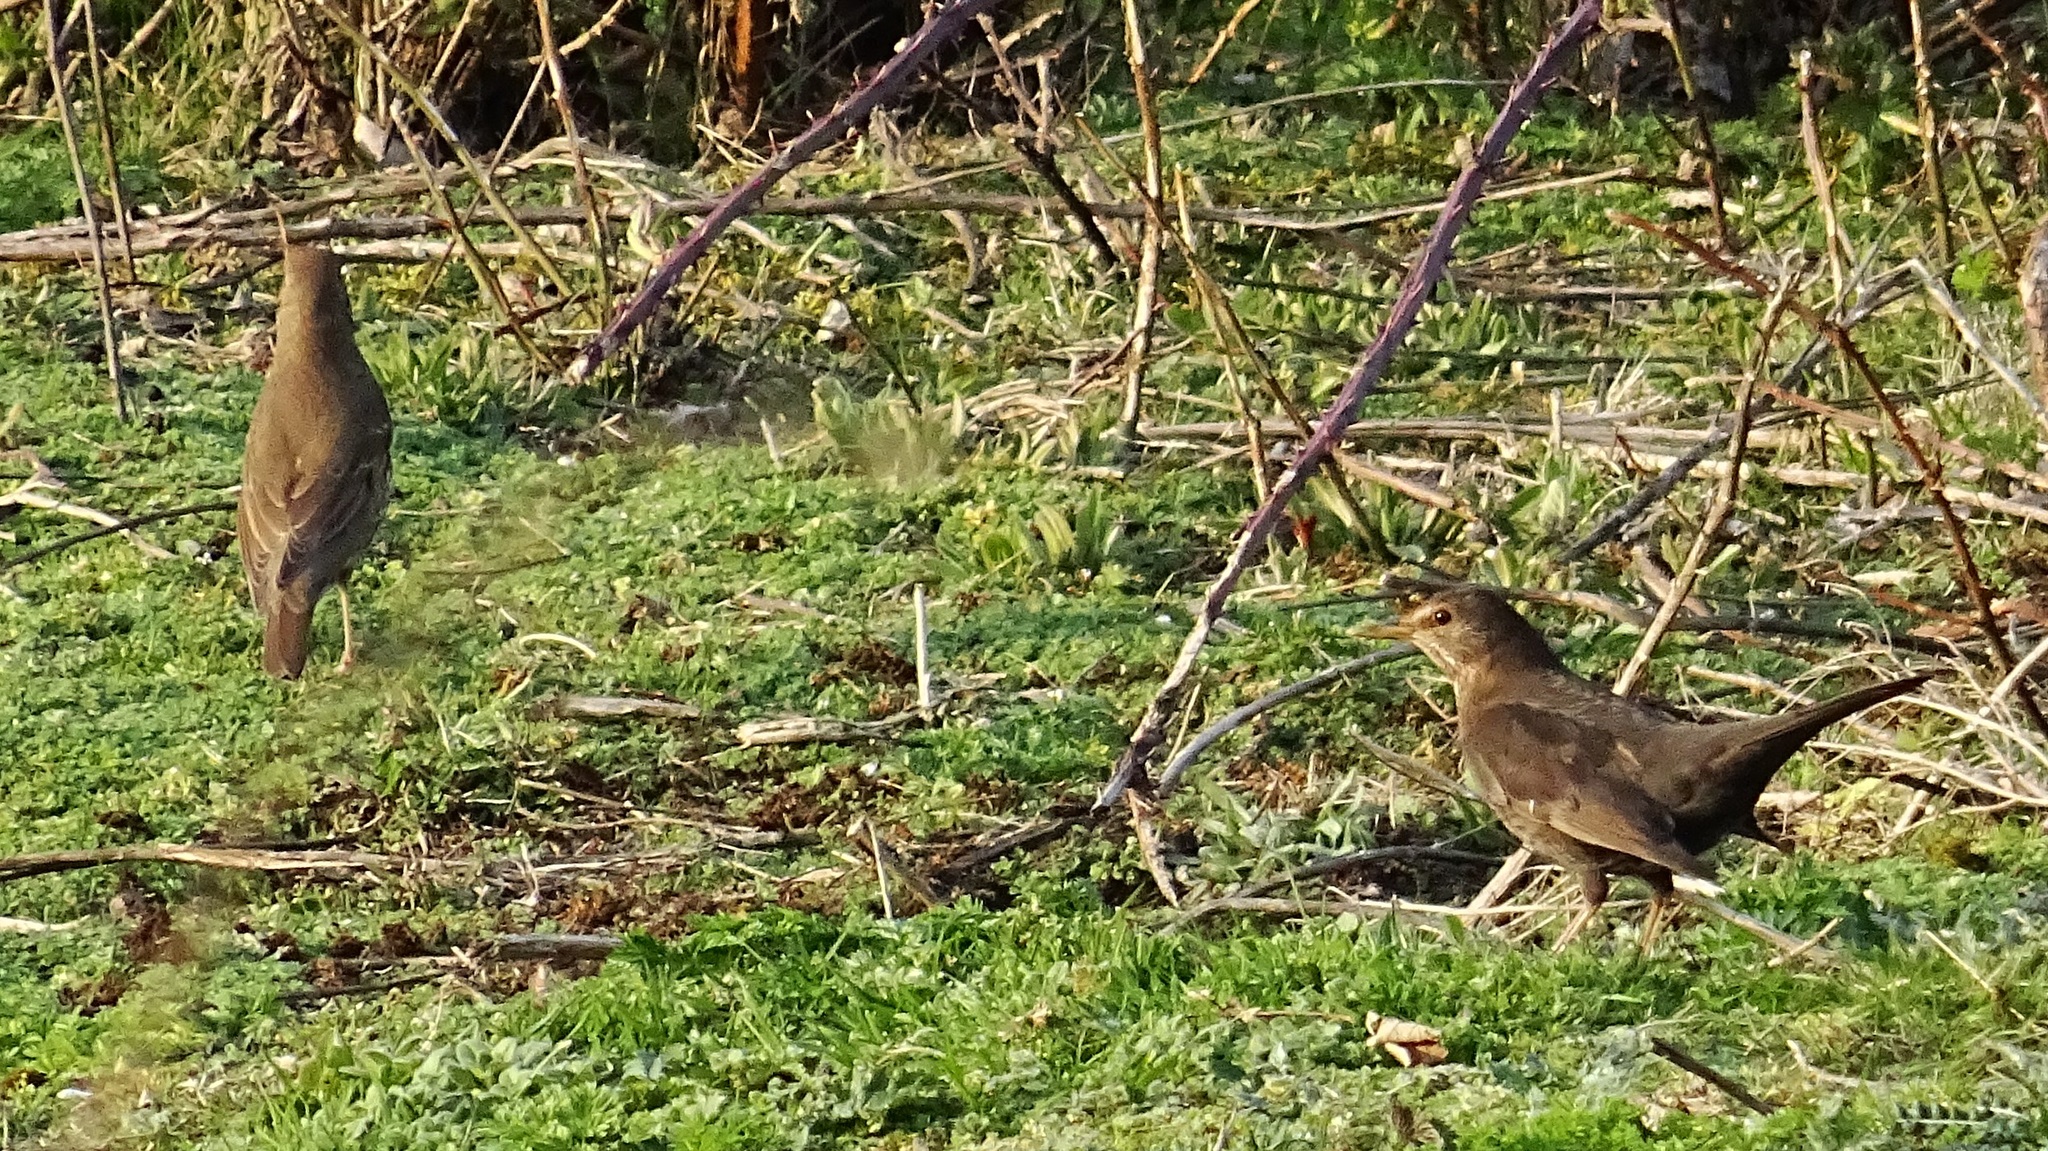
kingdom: Animalia
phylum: Chordata
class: Aves
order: Passeriformes
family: Turdidae
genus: Turdus
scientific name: Turdus merula
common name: Common blackbird
